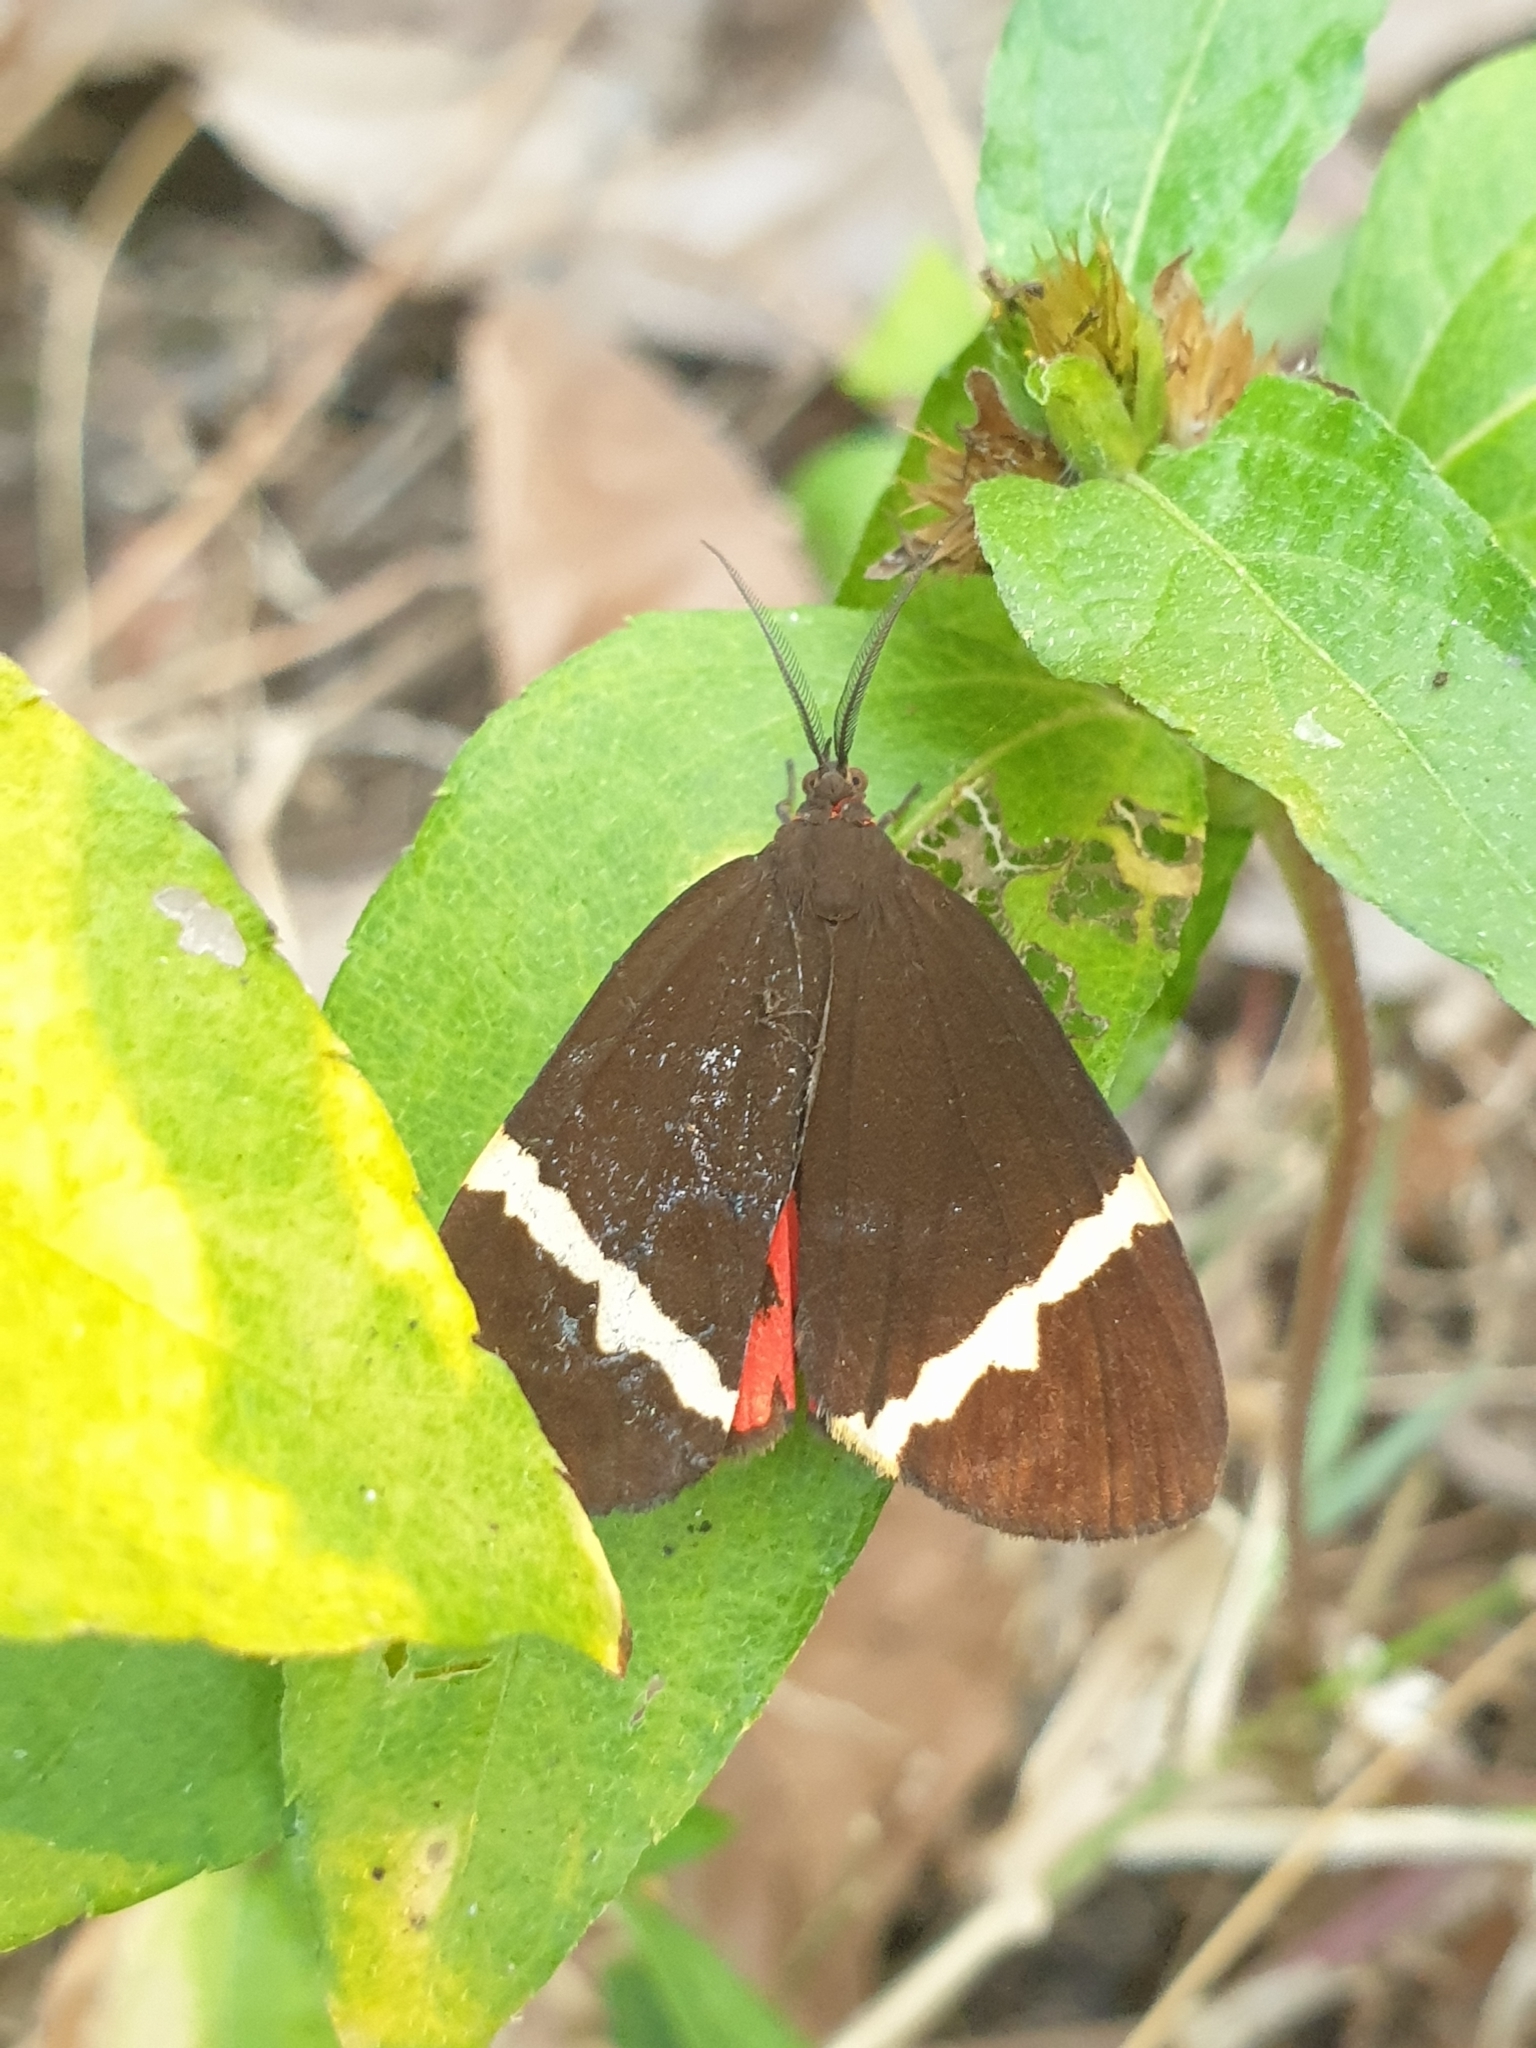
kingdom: Animalia
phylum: Arthropoda
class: Insecta
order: Lepidoptera
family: Erebidae
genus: Curoba
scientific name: Curoba sangarida
